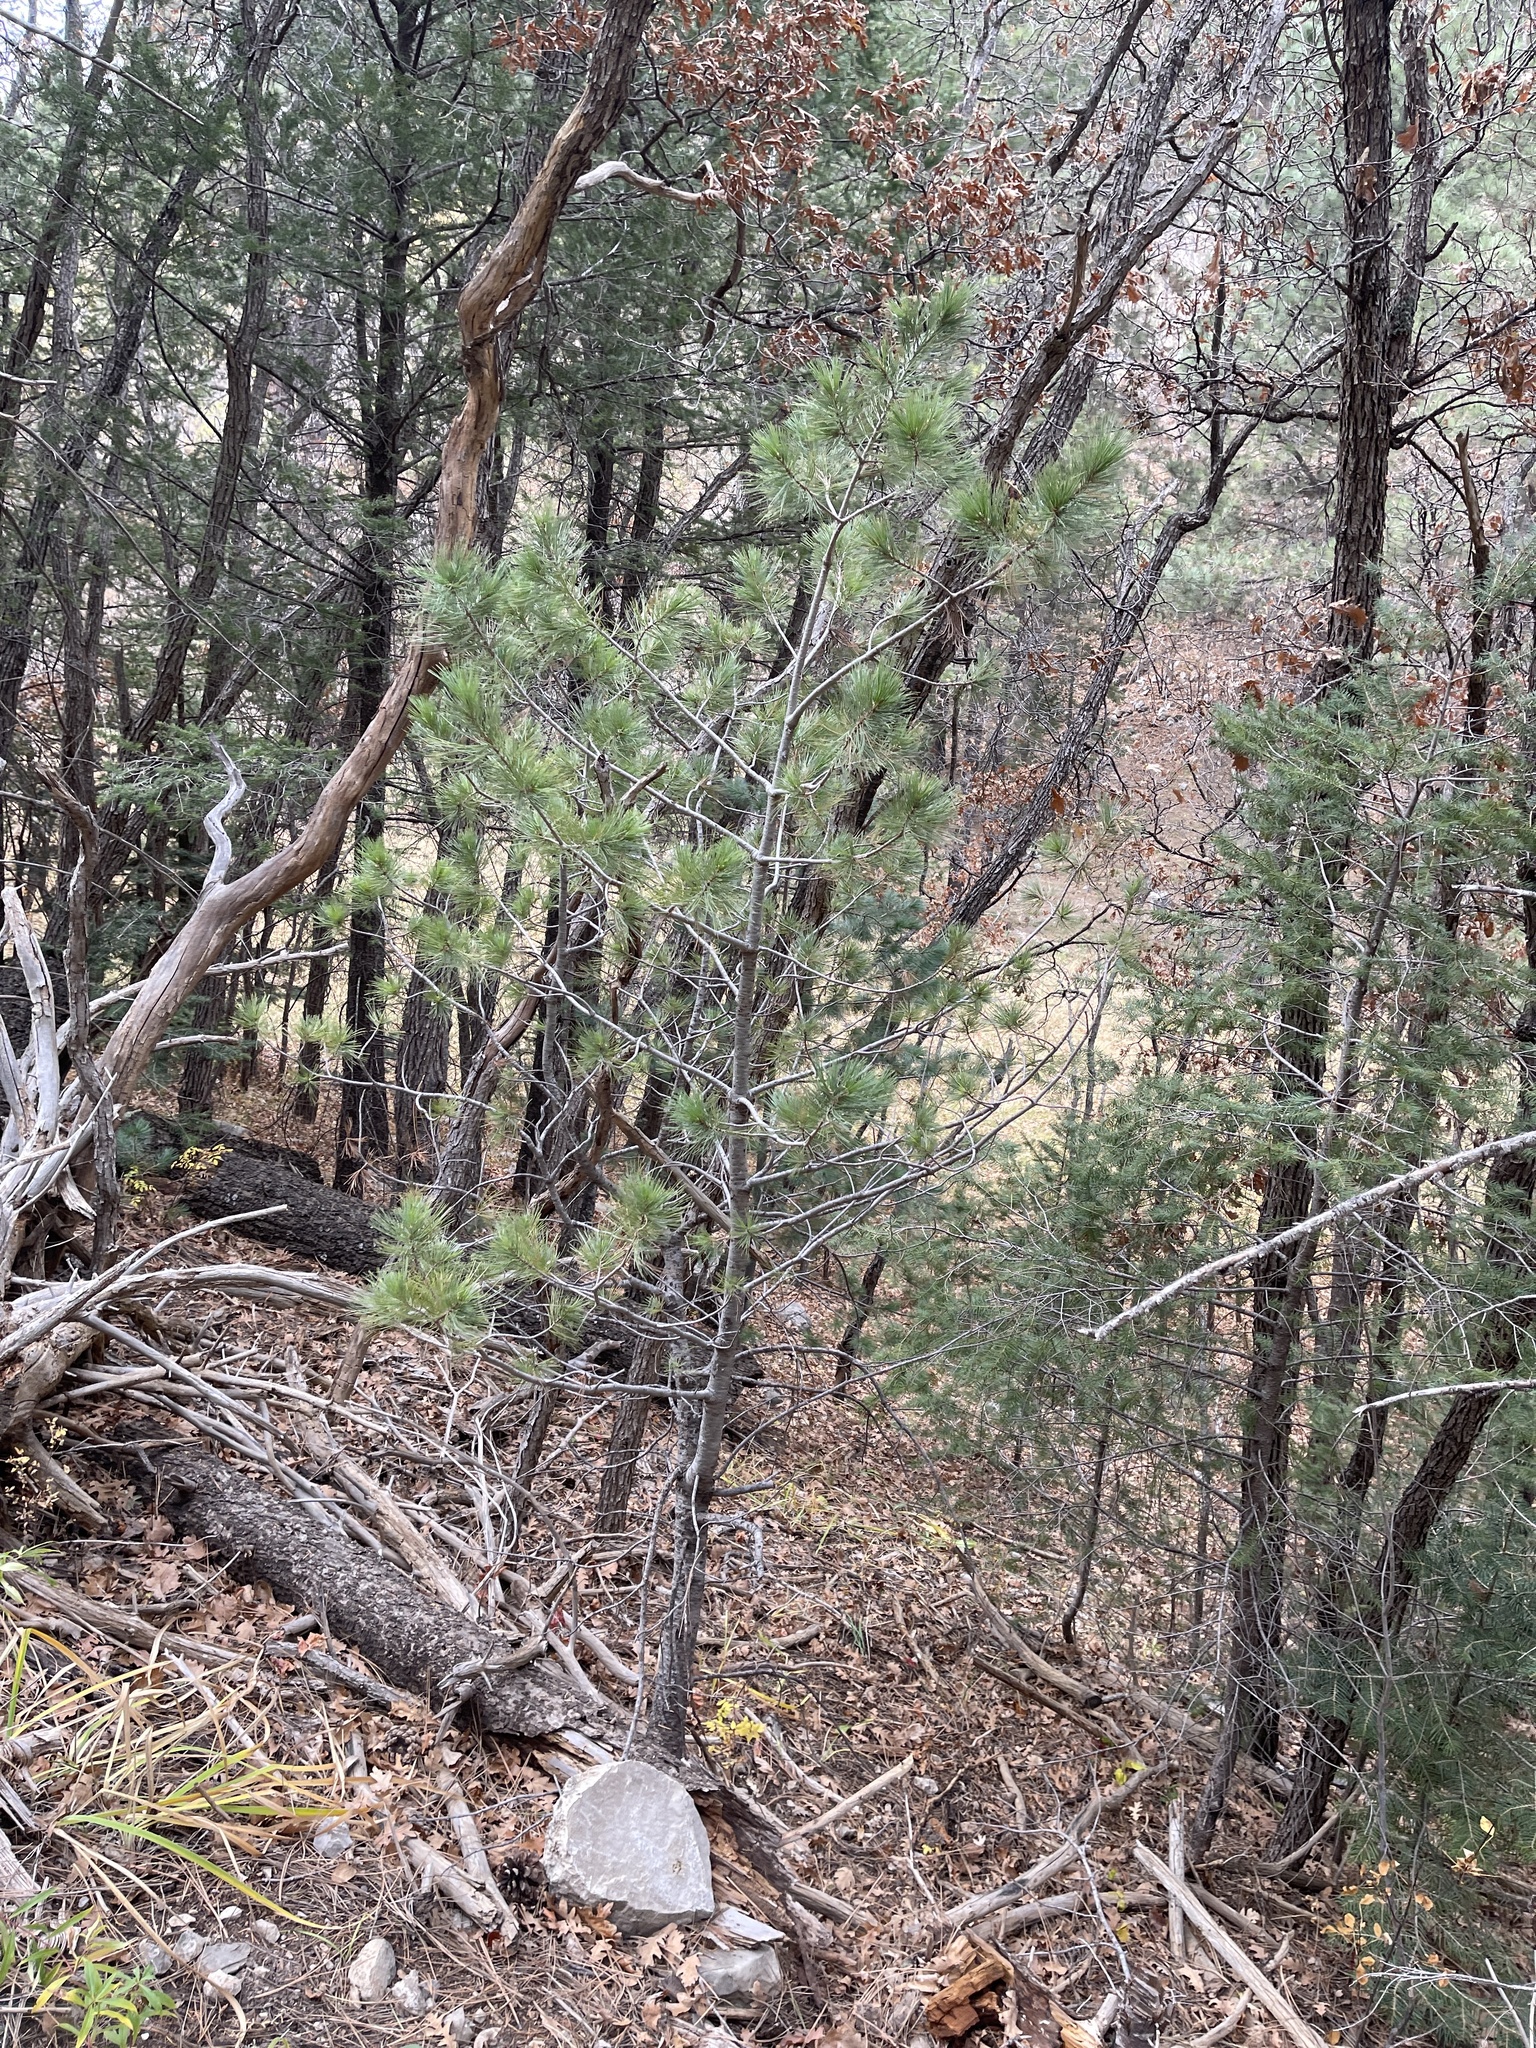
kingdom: Plantae
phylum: Tracheophyta
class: Pinopsida
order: Pinales
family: Pinaceae
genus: Pinus
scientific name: Pinus strobiformis
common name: Southwestern white pine
